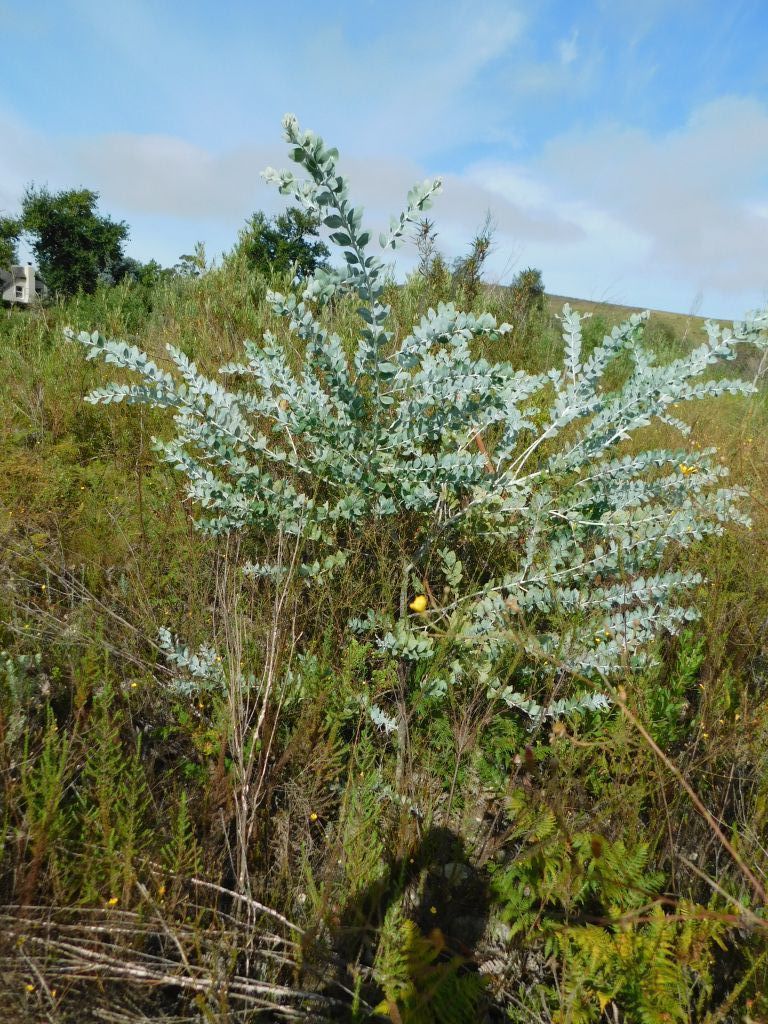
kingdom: Plantae
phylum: Tracheophyta
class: Magnoliopsida
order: Fabales
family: Fabaceae
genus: Acacia
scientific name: Acacia podalyriifolia
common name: Pearl wattle
